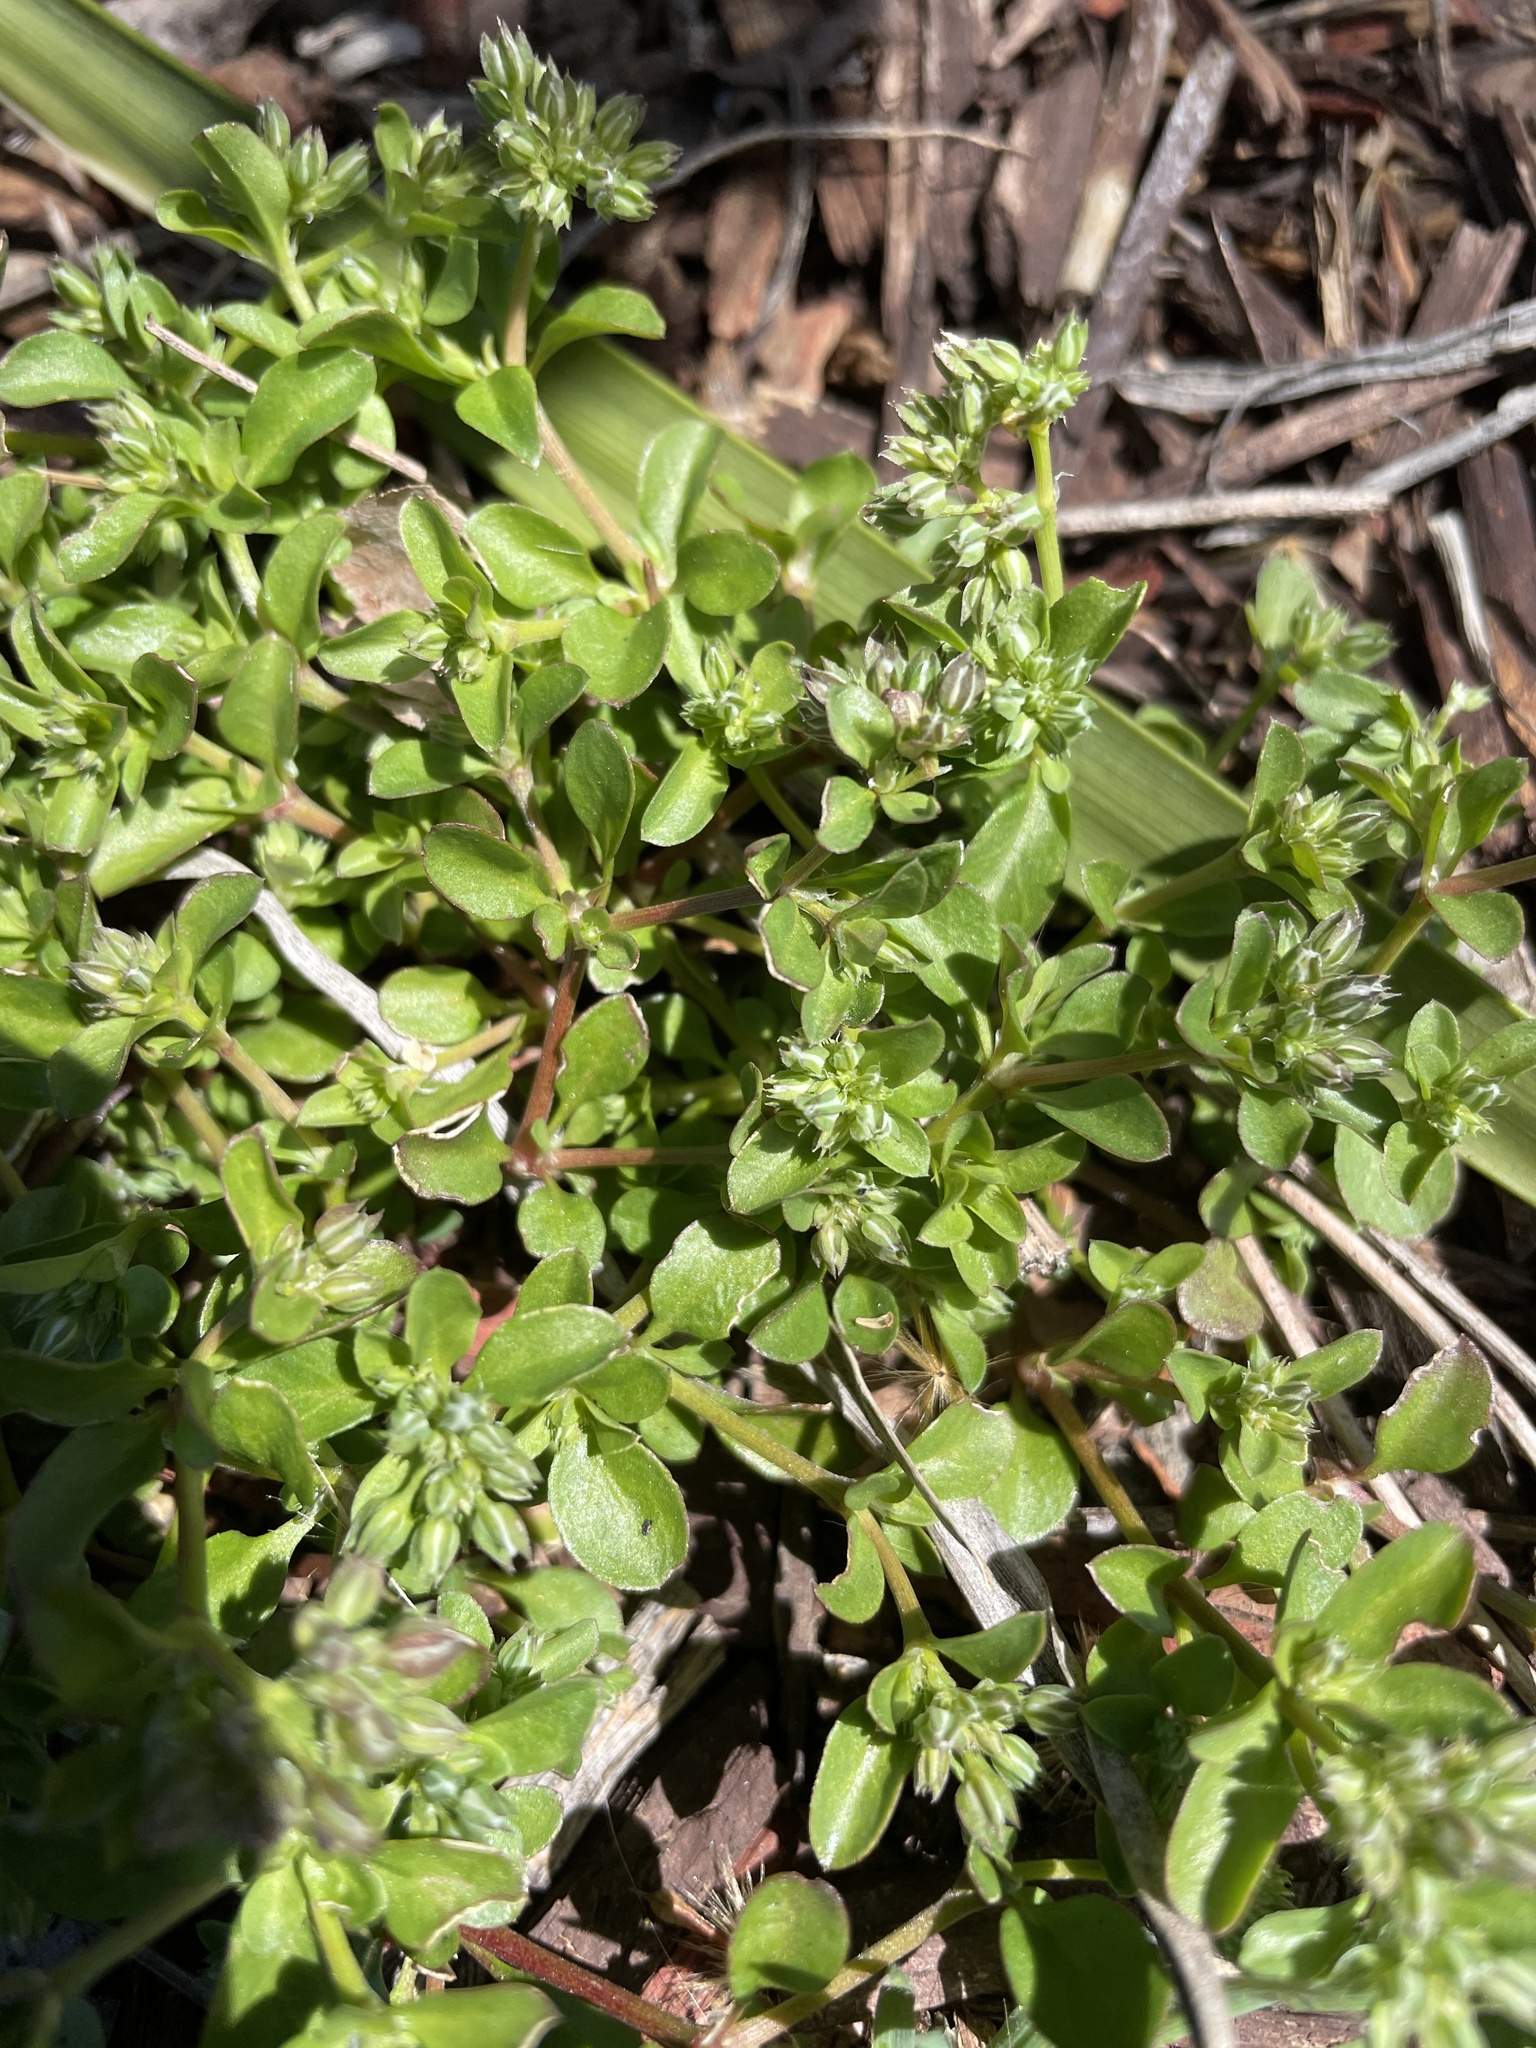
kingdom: Plantae
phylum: Tracheophyta
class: Magnoliopsida
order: Caryophyllales
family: Caryophyllaceae
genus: Polycarpon
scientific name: Polycarpon tetraphyllum
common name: Four-leaved all-seed
